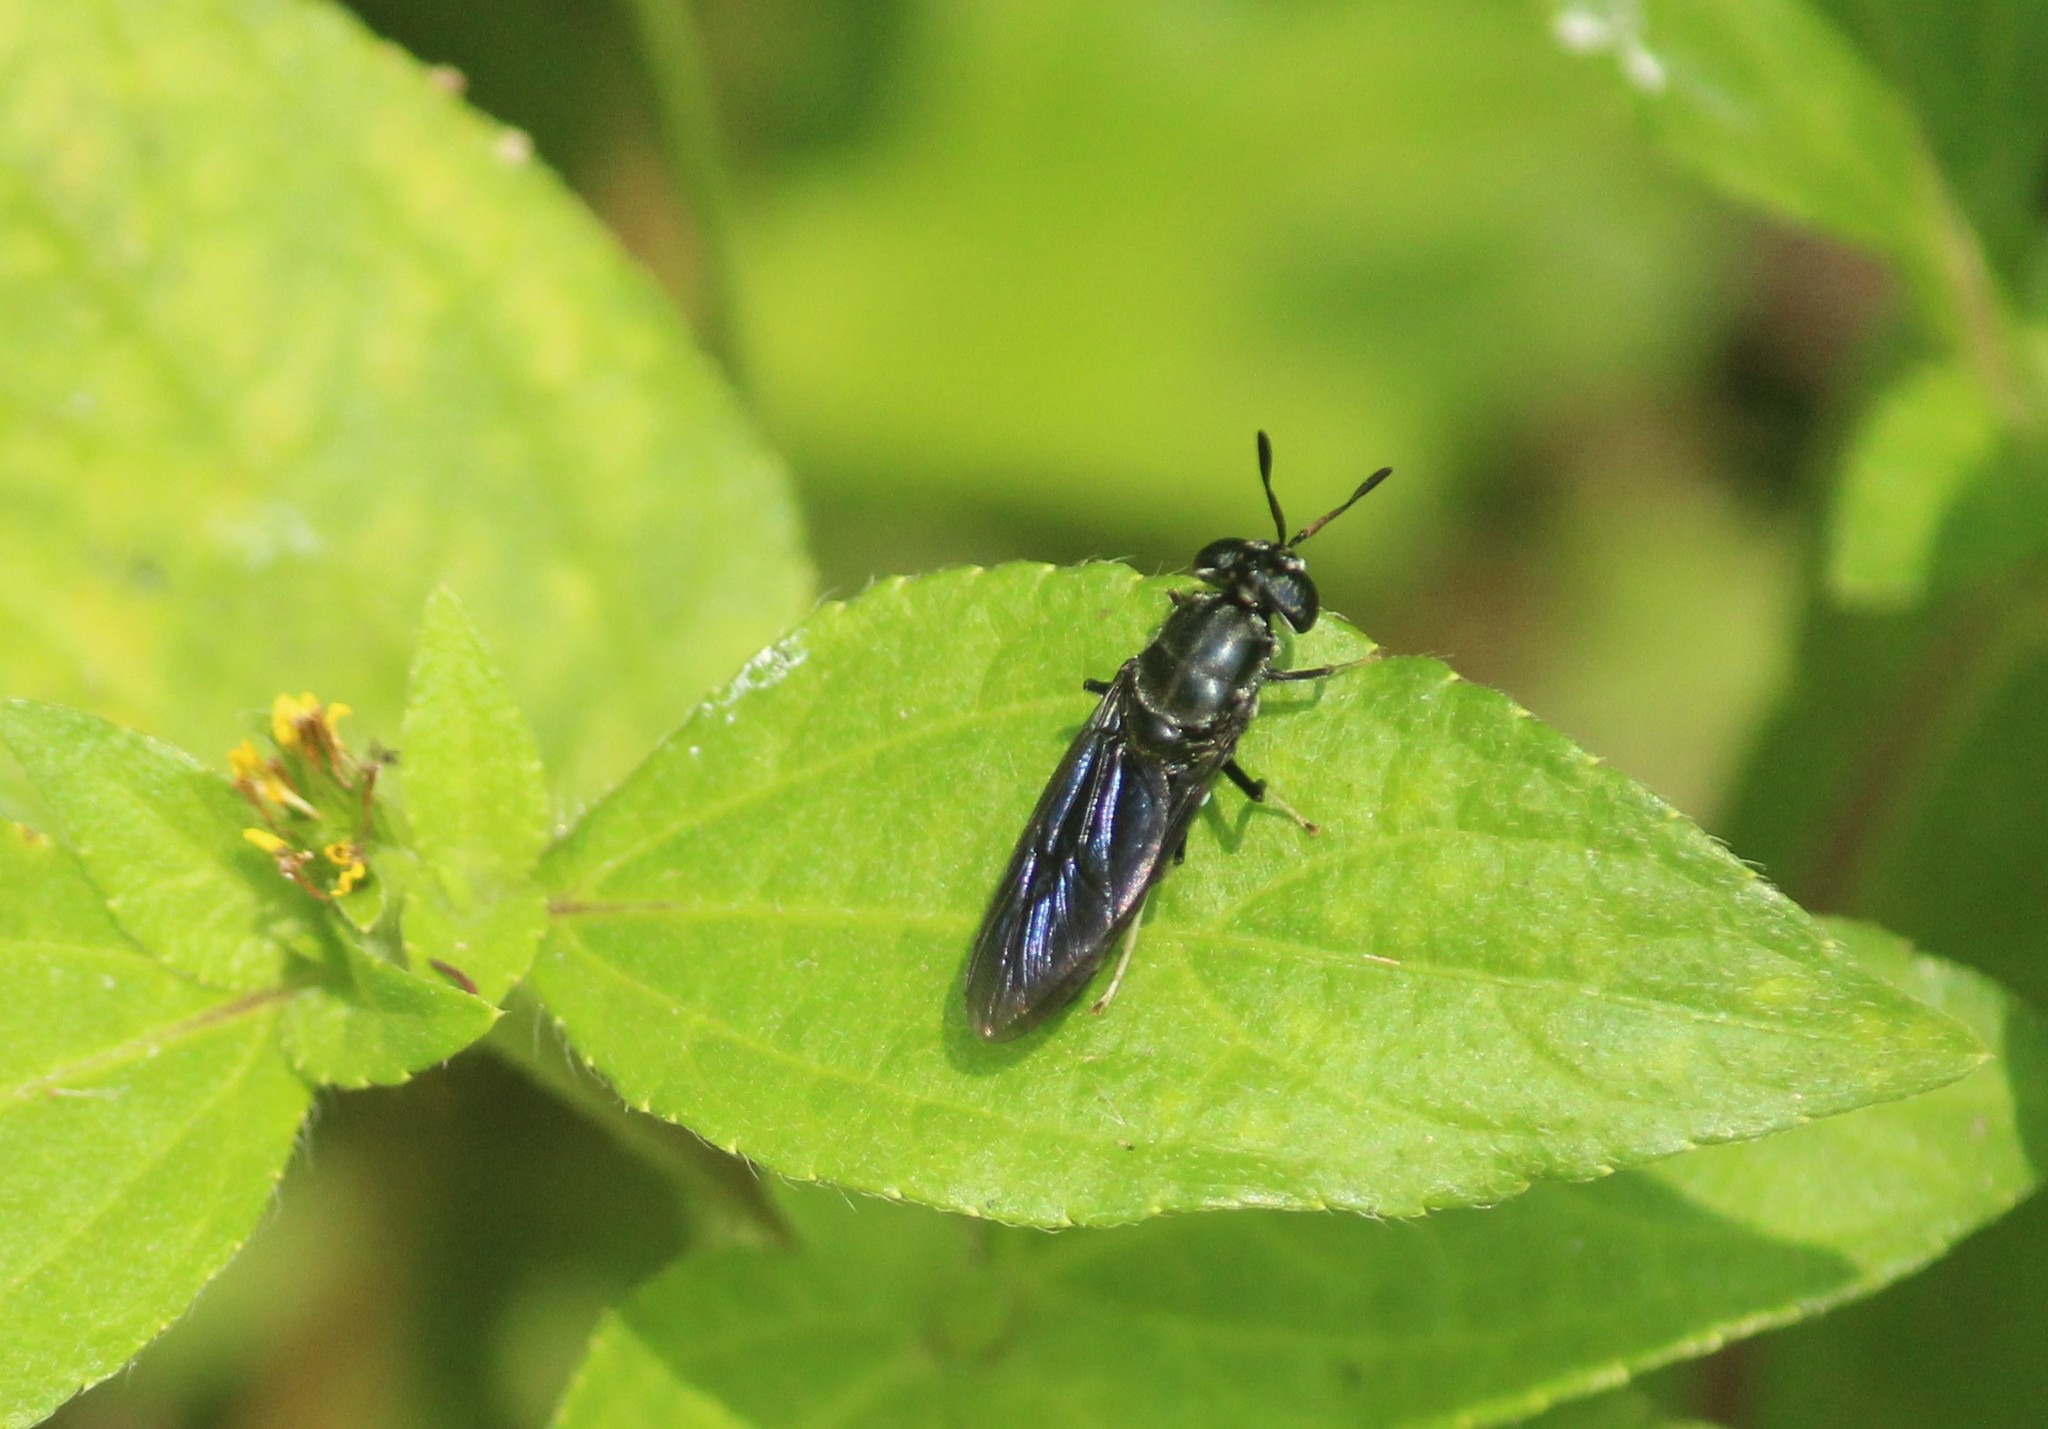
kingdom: Animalia
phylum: Arthropoda
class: Insecta
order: Diptera
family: Stratiomyidae
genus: Hermetia
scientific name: Hermetia illucens
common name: Black soldier fly
